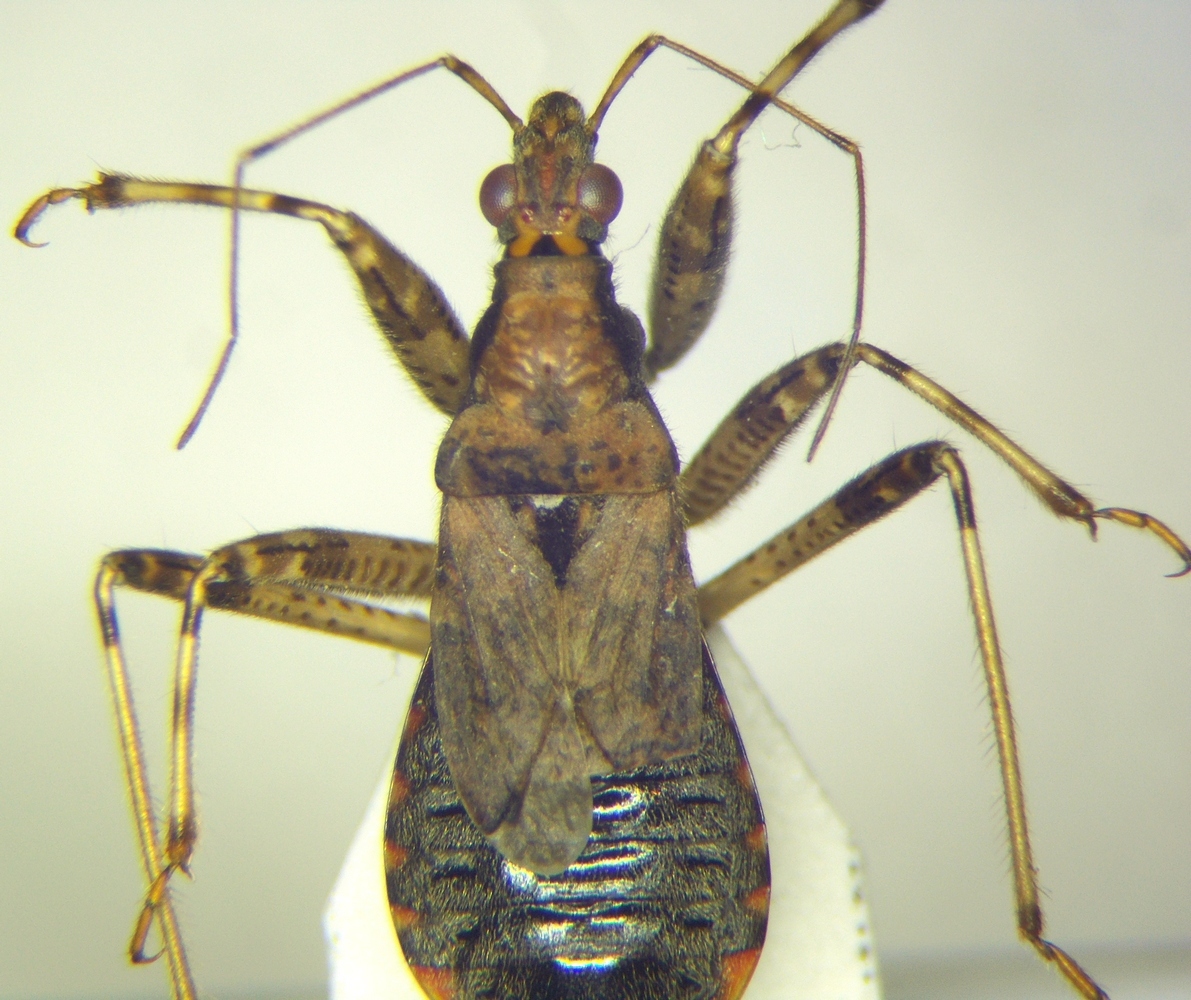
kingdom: Animalia
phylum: Arthropoda
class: Insecta
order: Hemiptera
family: Nabidae
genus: Himacerus
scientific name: Himacerus mirmicoides
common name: Ant damsel bug
